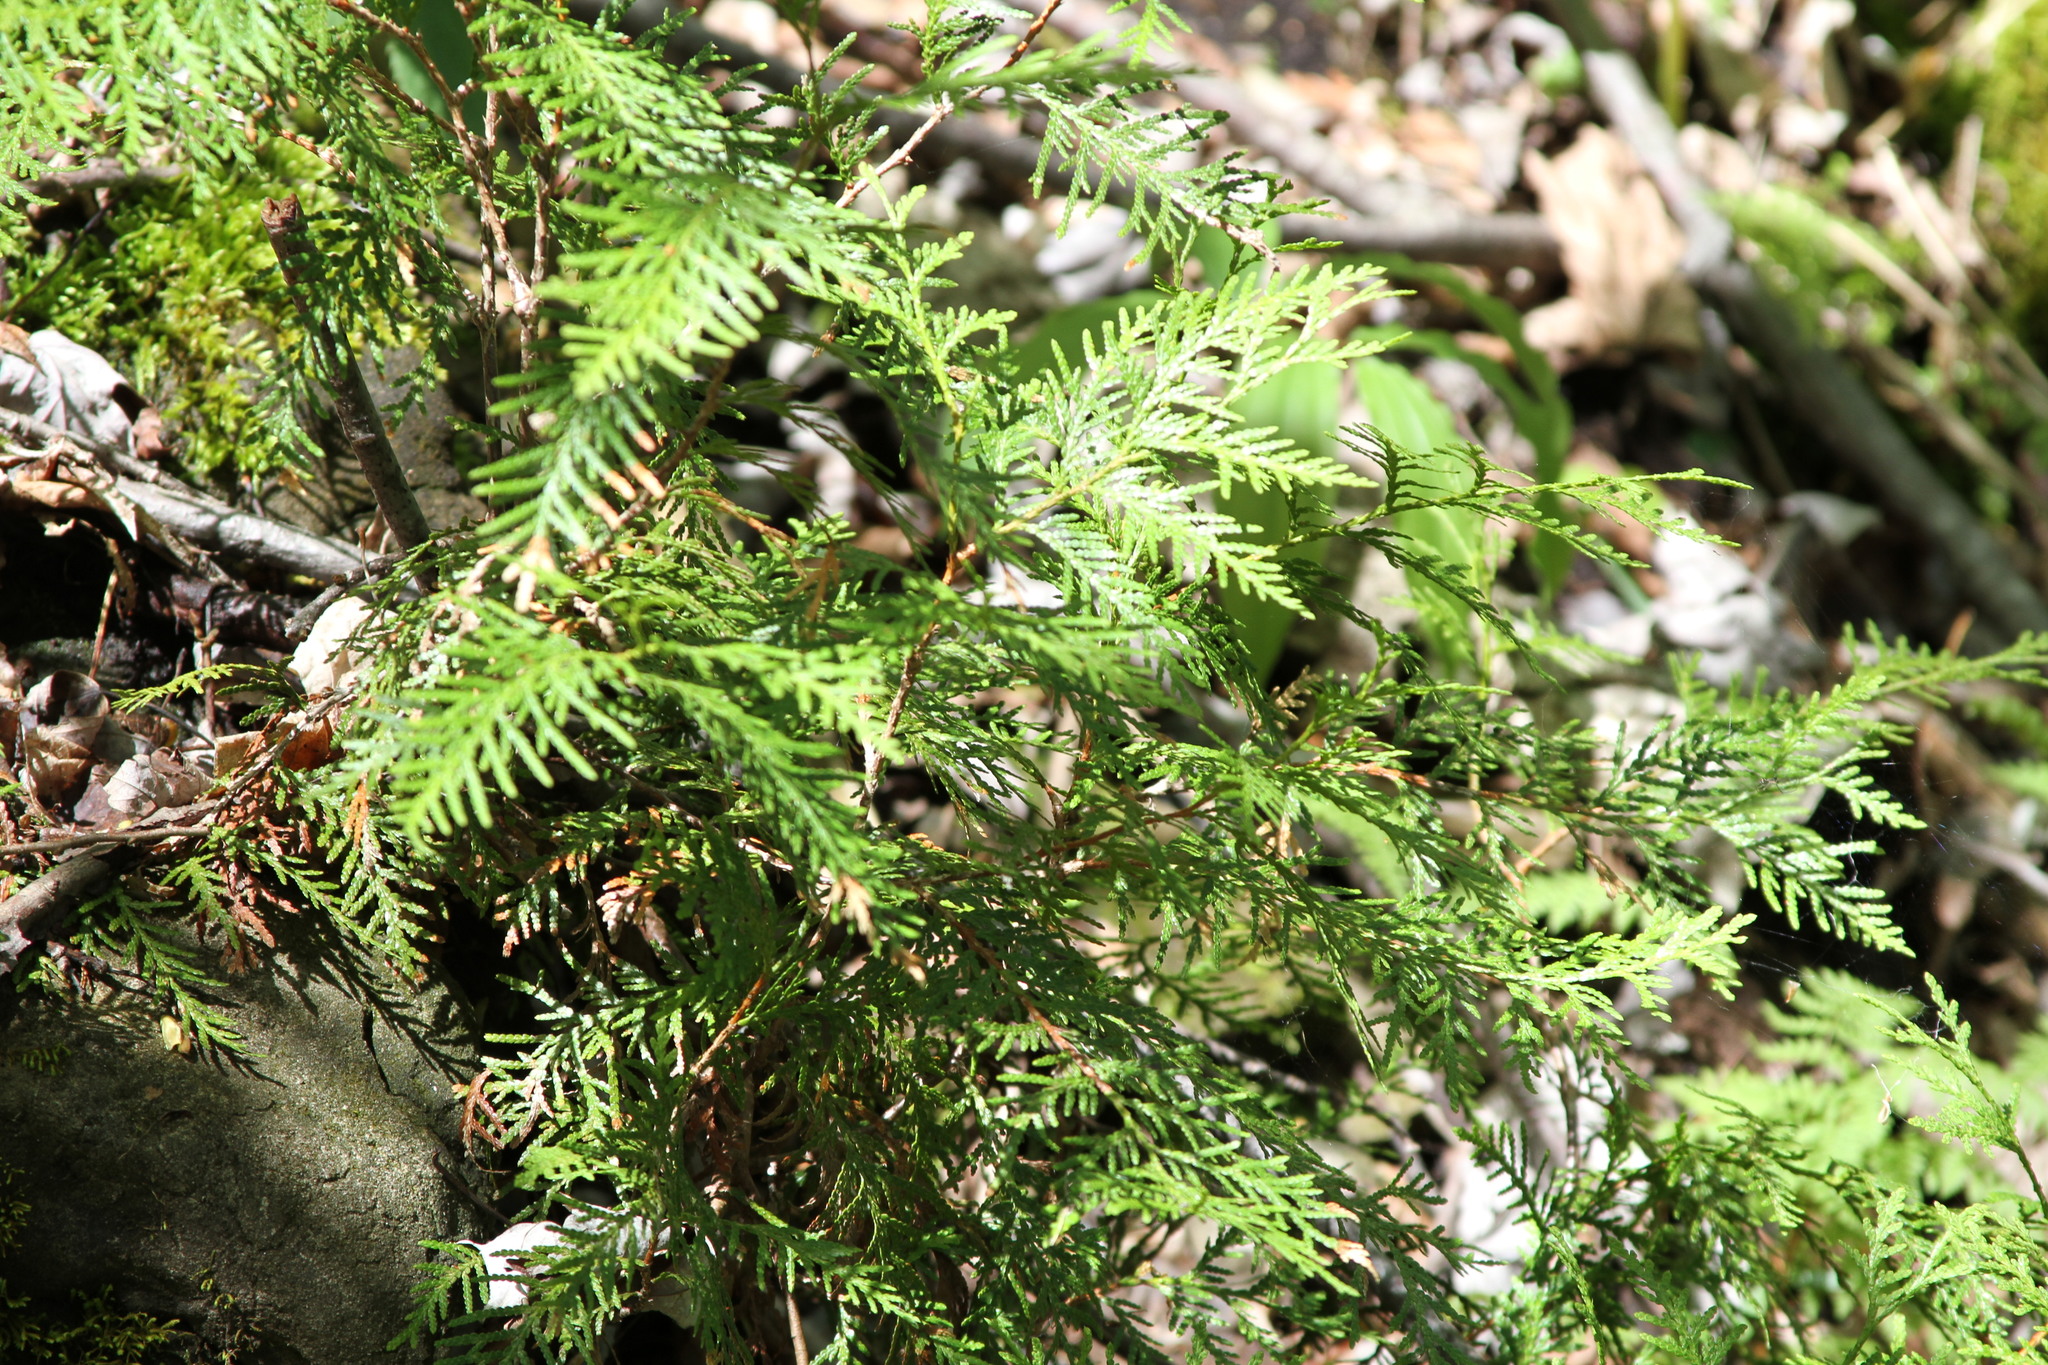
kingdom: Plantae
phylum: Tracheophyta
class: Pinopsida
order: Pinales
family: Cupressaceae
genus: Thuja
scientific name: Thuja occidentalis
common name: Northern white-cedar
